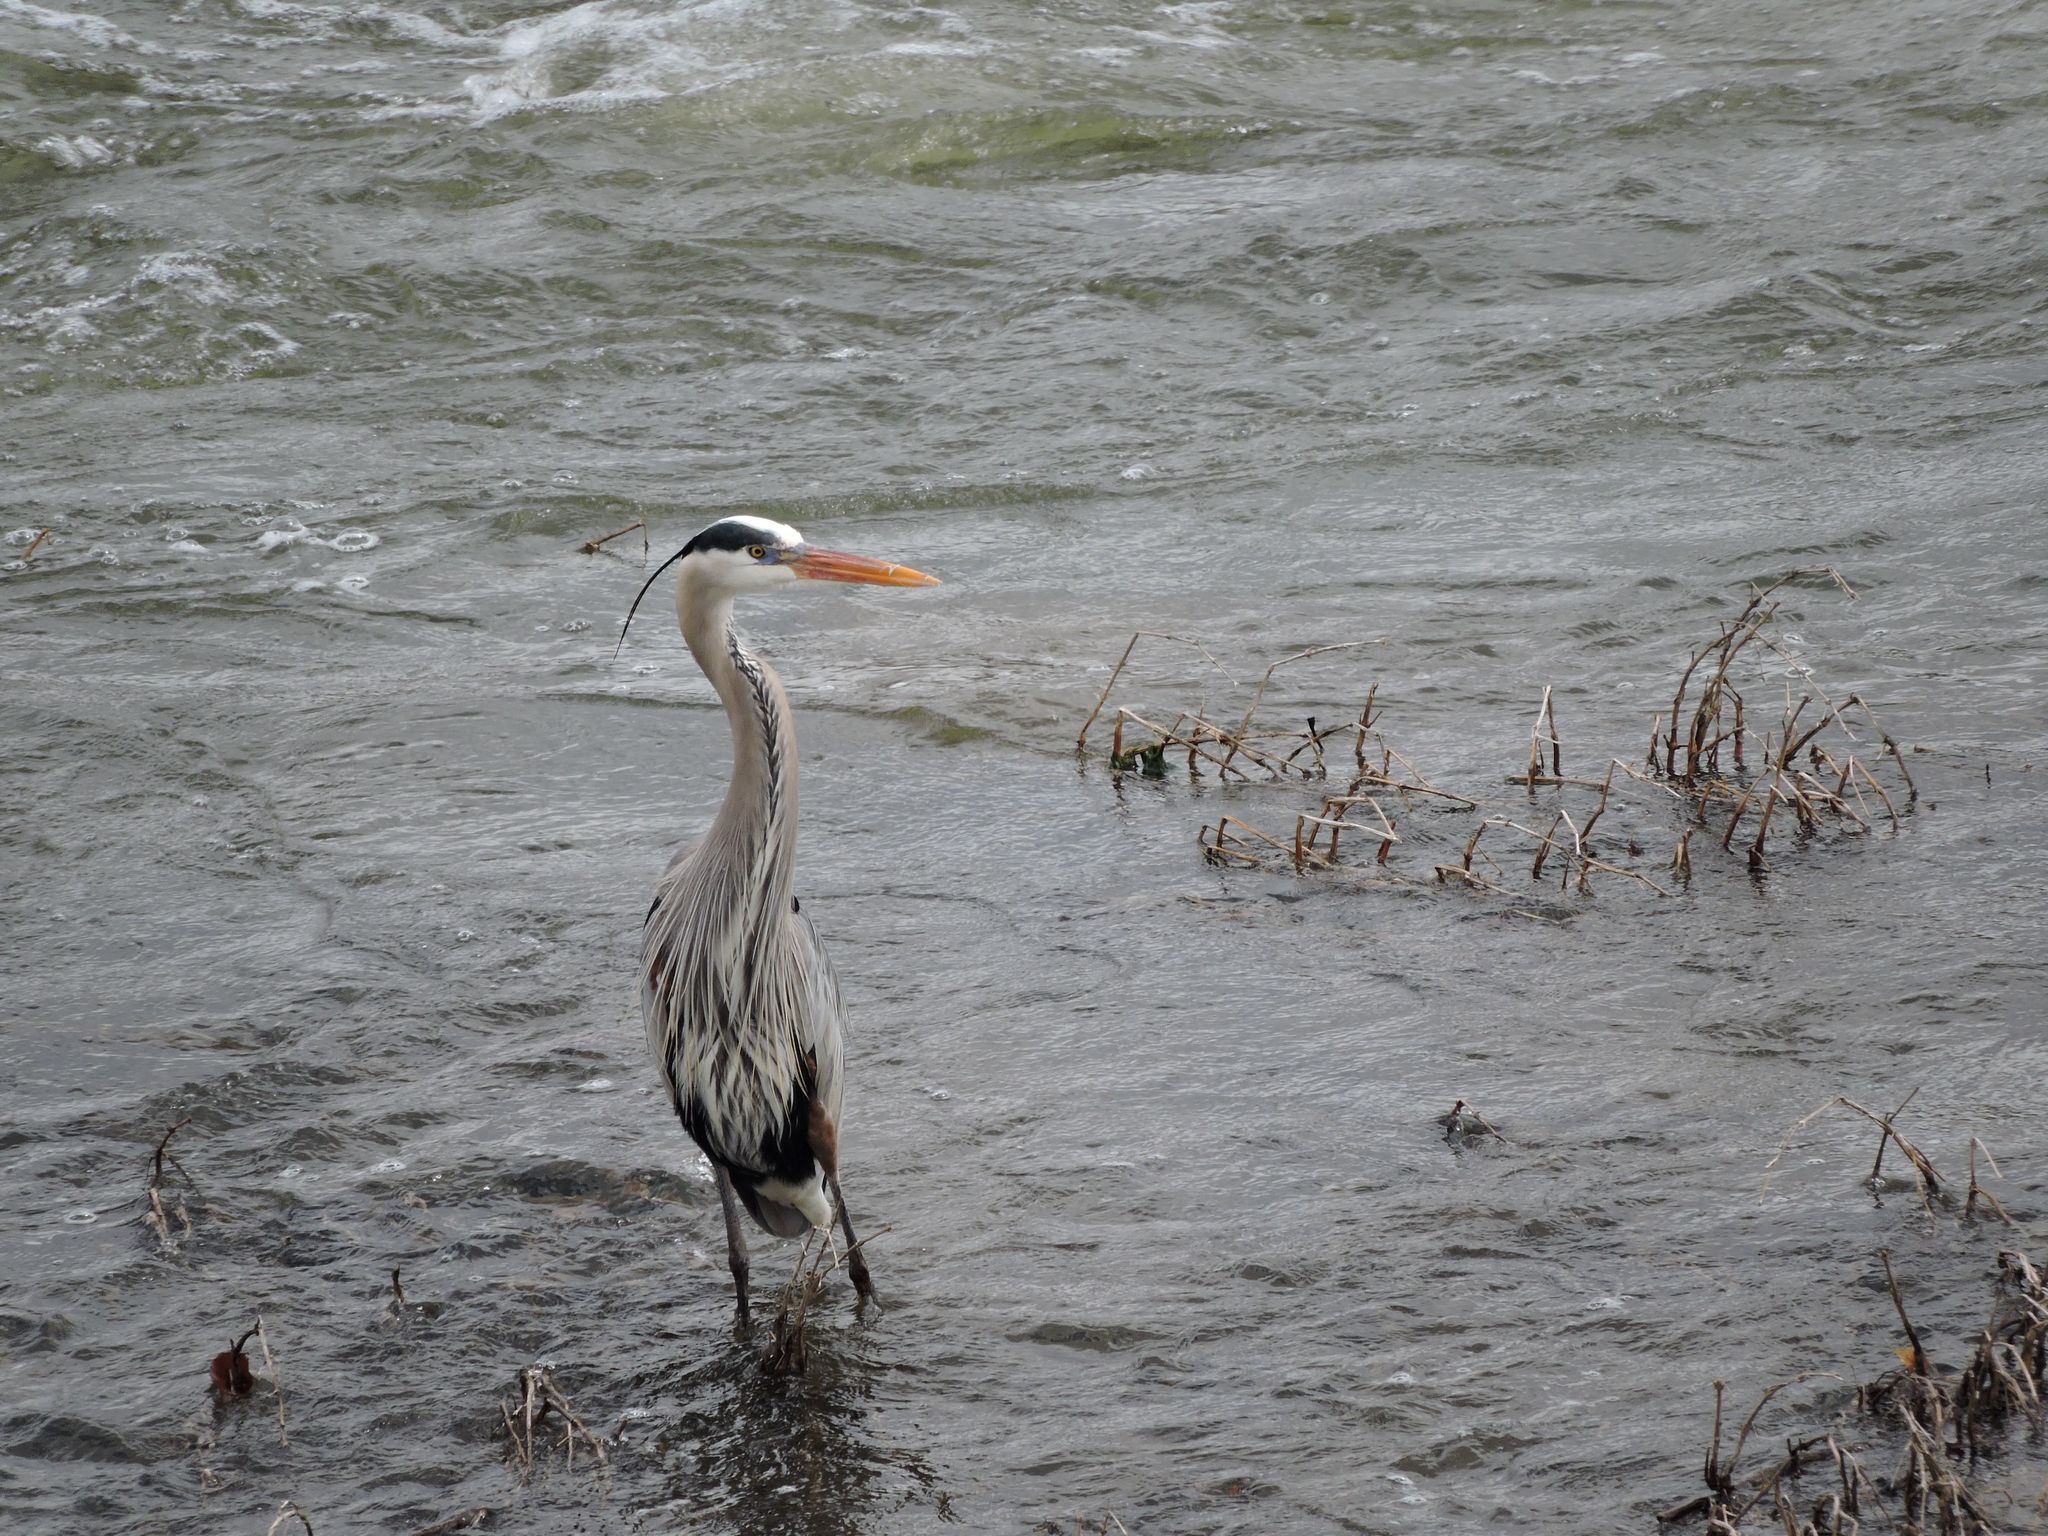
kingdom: Animalia
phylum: Chordata
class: Aves
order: Pelecaniformes
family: Ardeidae
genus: Ardea
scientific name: Ardea herodias
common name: Great blue heron
